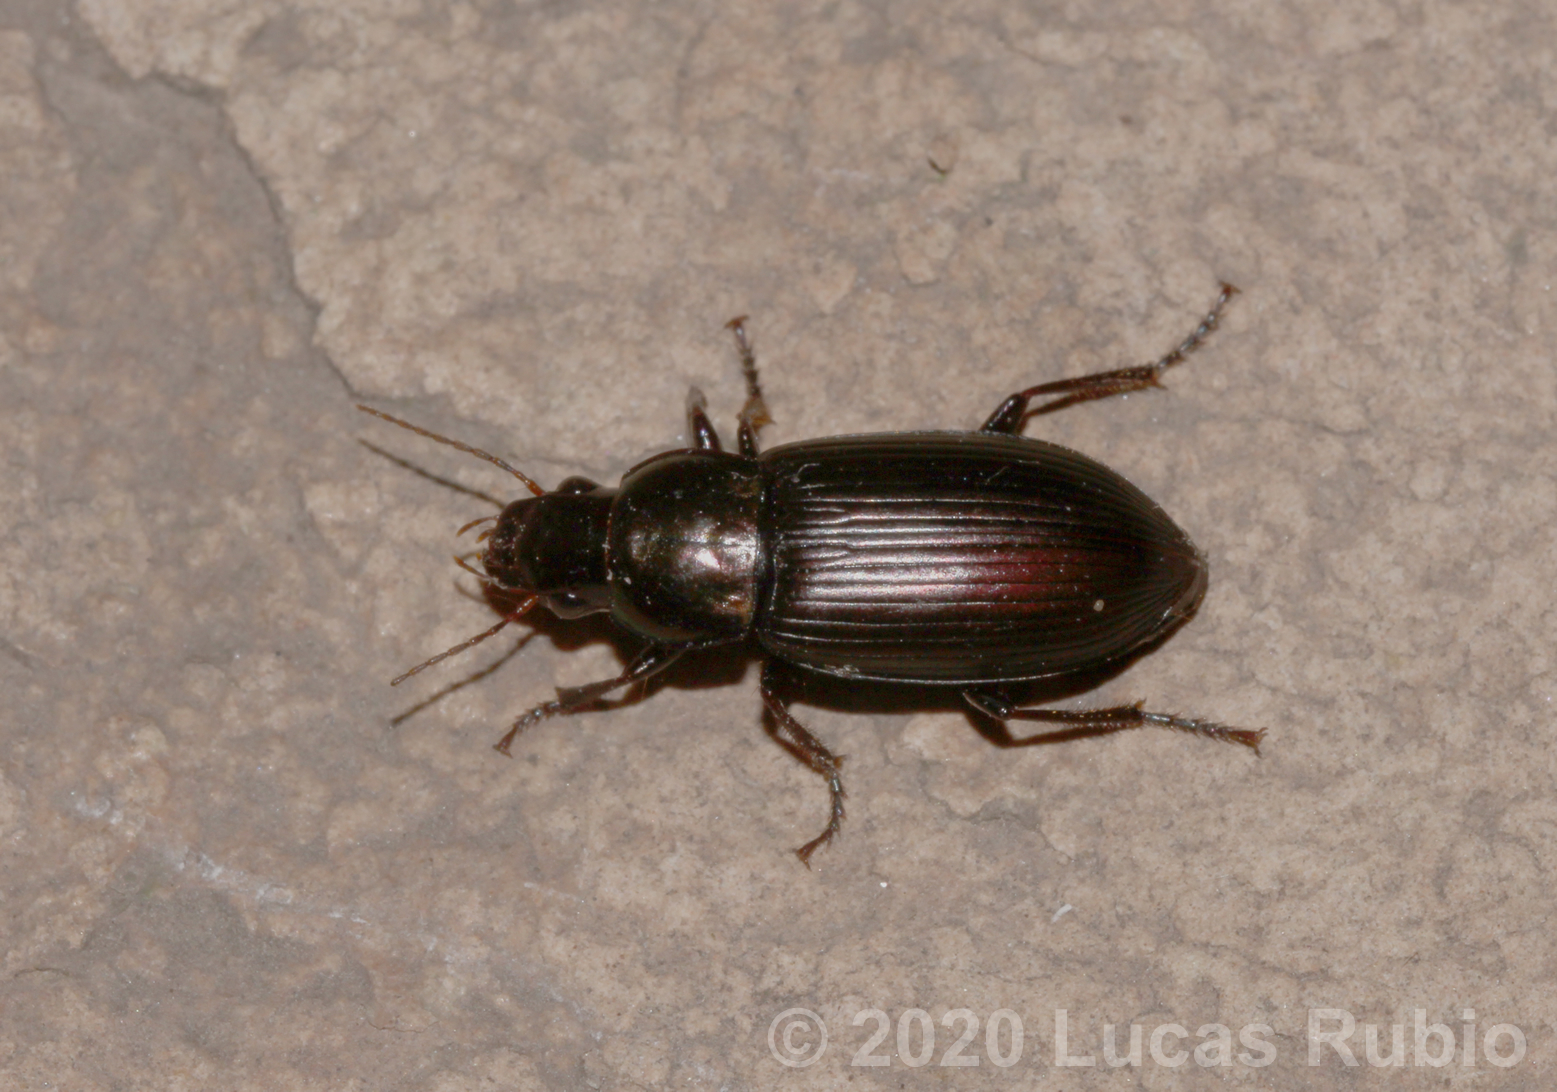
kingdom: Animalia
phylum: Arthropoda
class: Insecta
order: Coleoptera
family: Carabidae
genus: Notiobia
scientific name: Notiobia cupripennis
